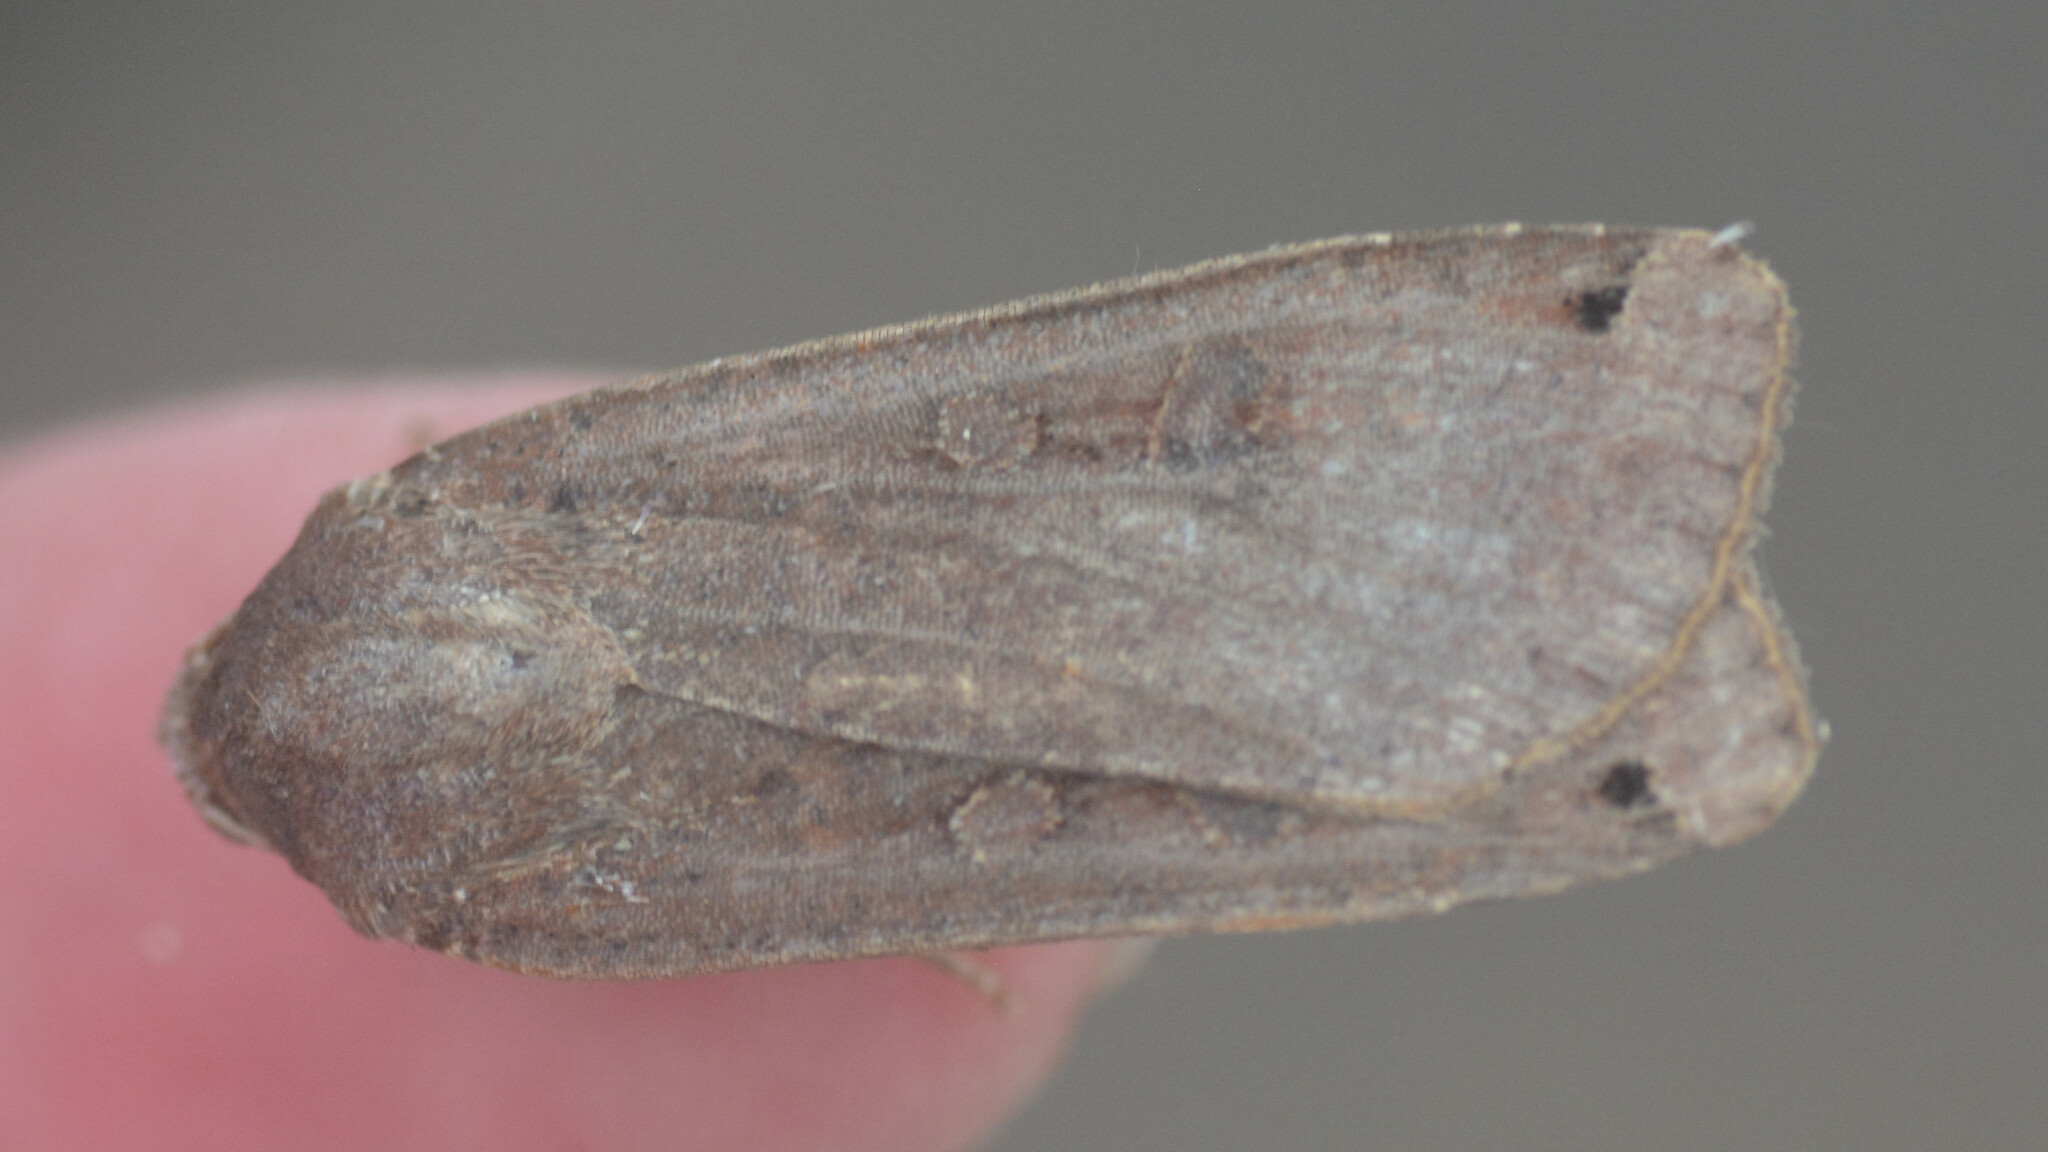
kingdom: Animalia
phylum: Arthropoda
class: Insecta
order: Lepidoptera
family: Noctuidae
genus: Noctua
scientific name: Noctua pronuba
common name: Large yellow underwing
